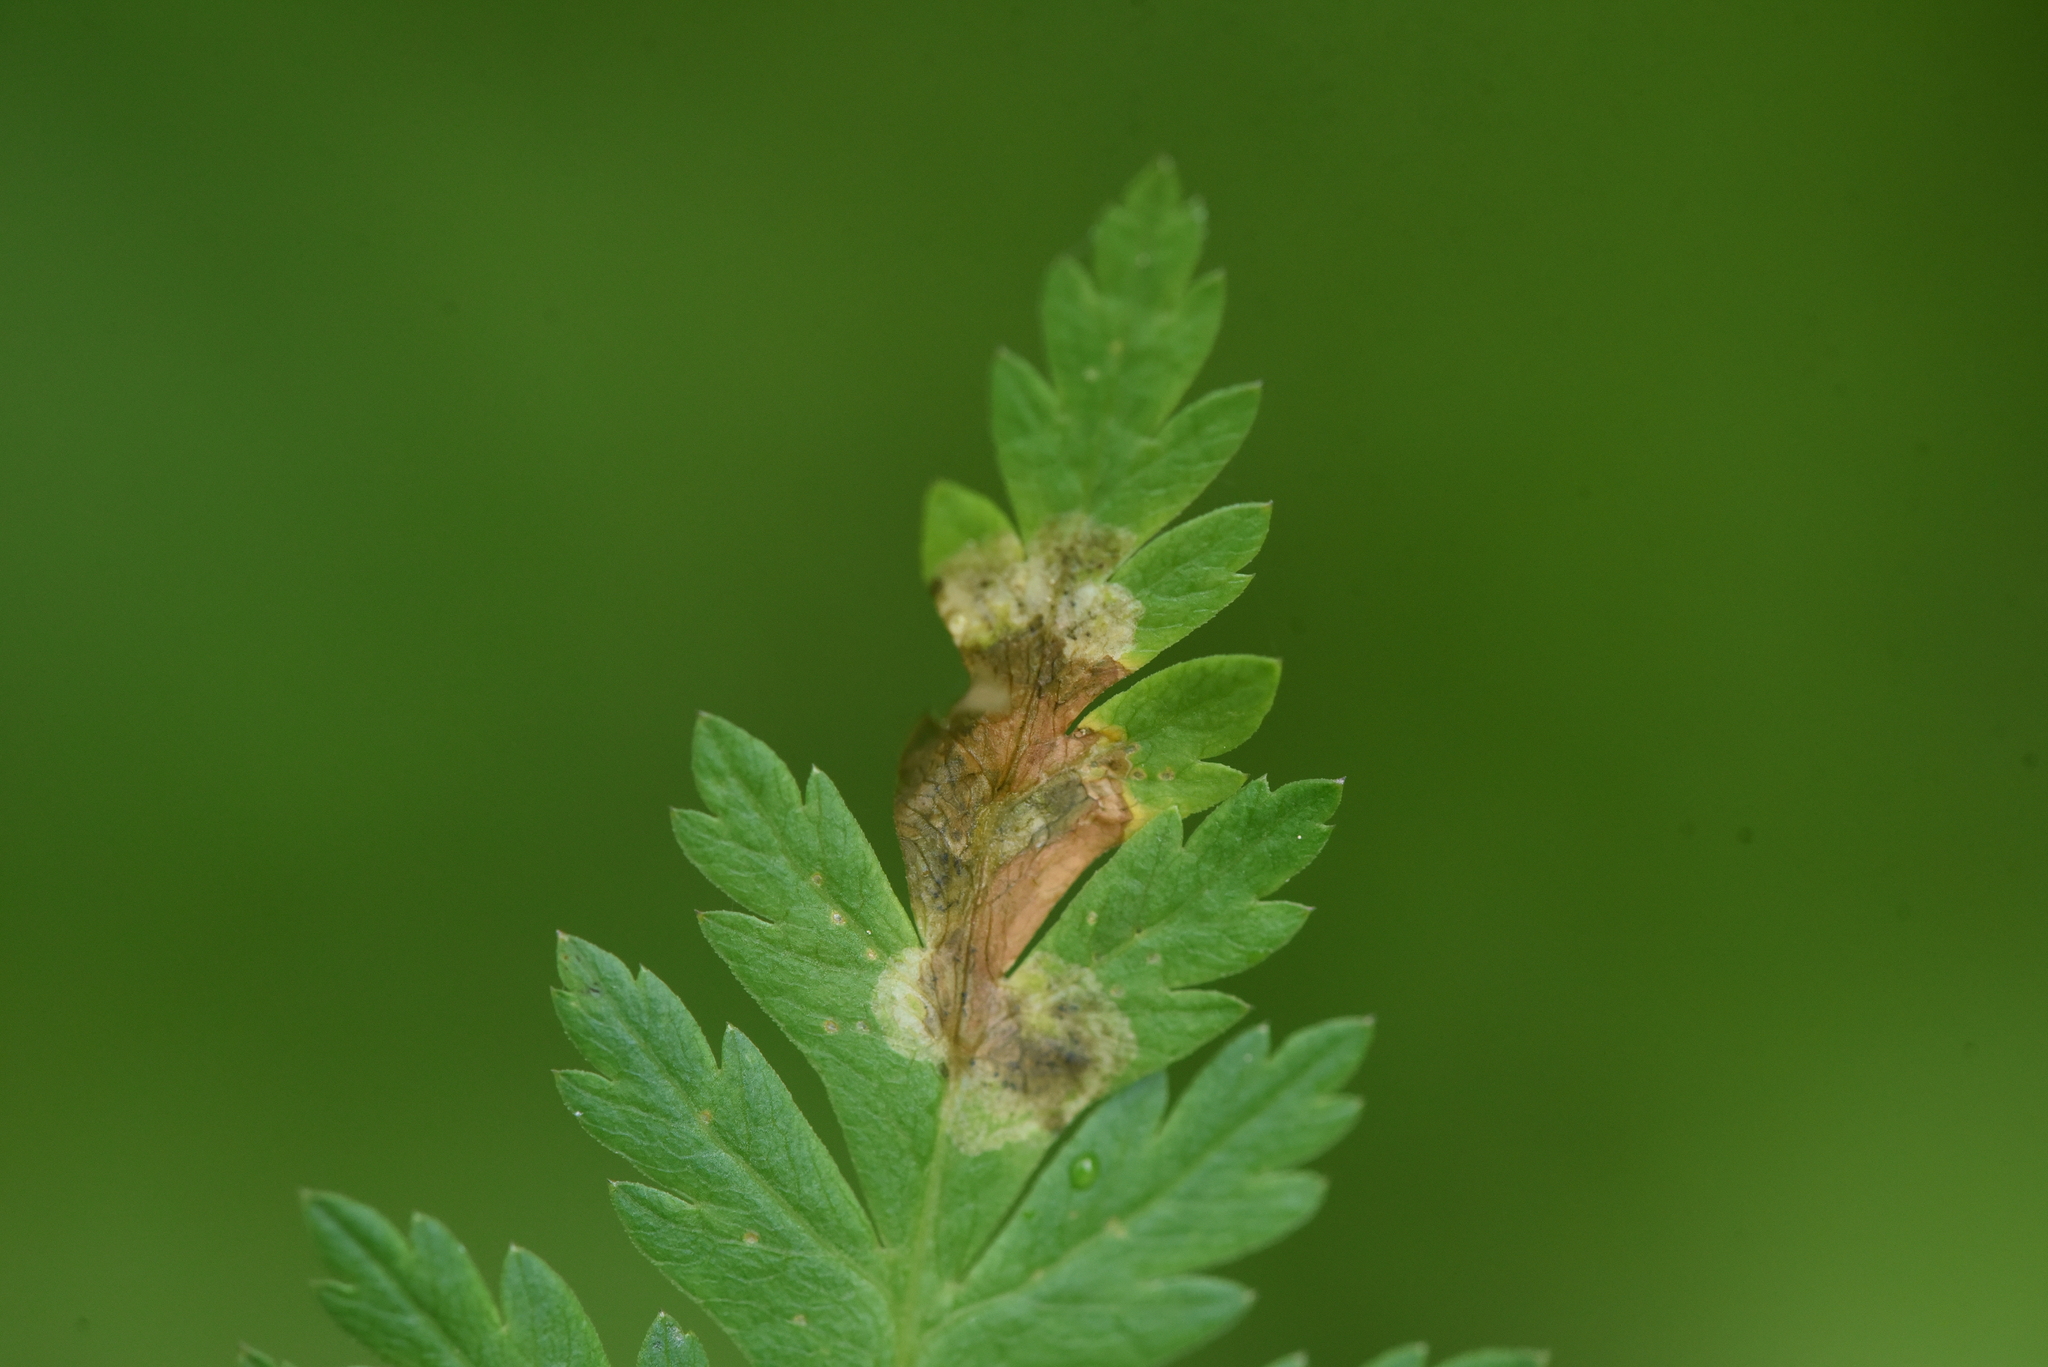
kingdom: Animalia
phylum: Arthropoda
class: Insecta
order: Diptera
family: Tephritidae
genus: Euleia
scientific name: Euleia fratria
